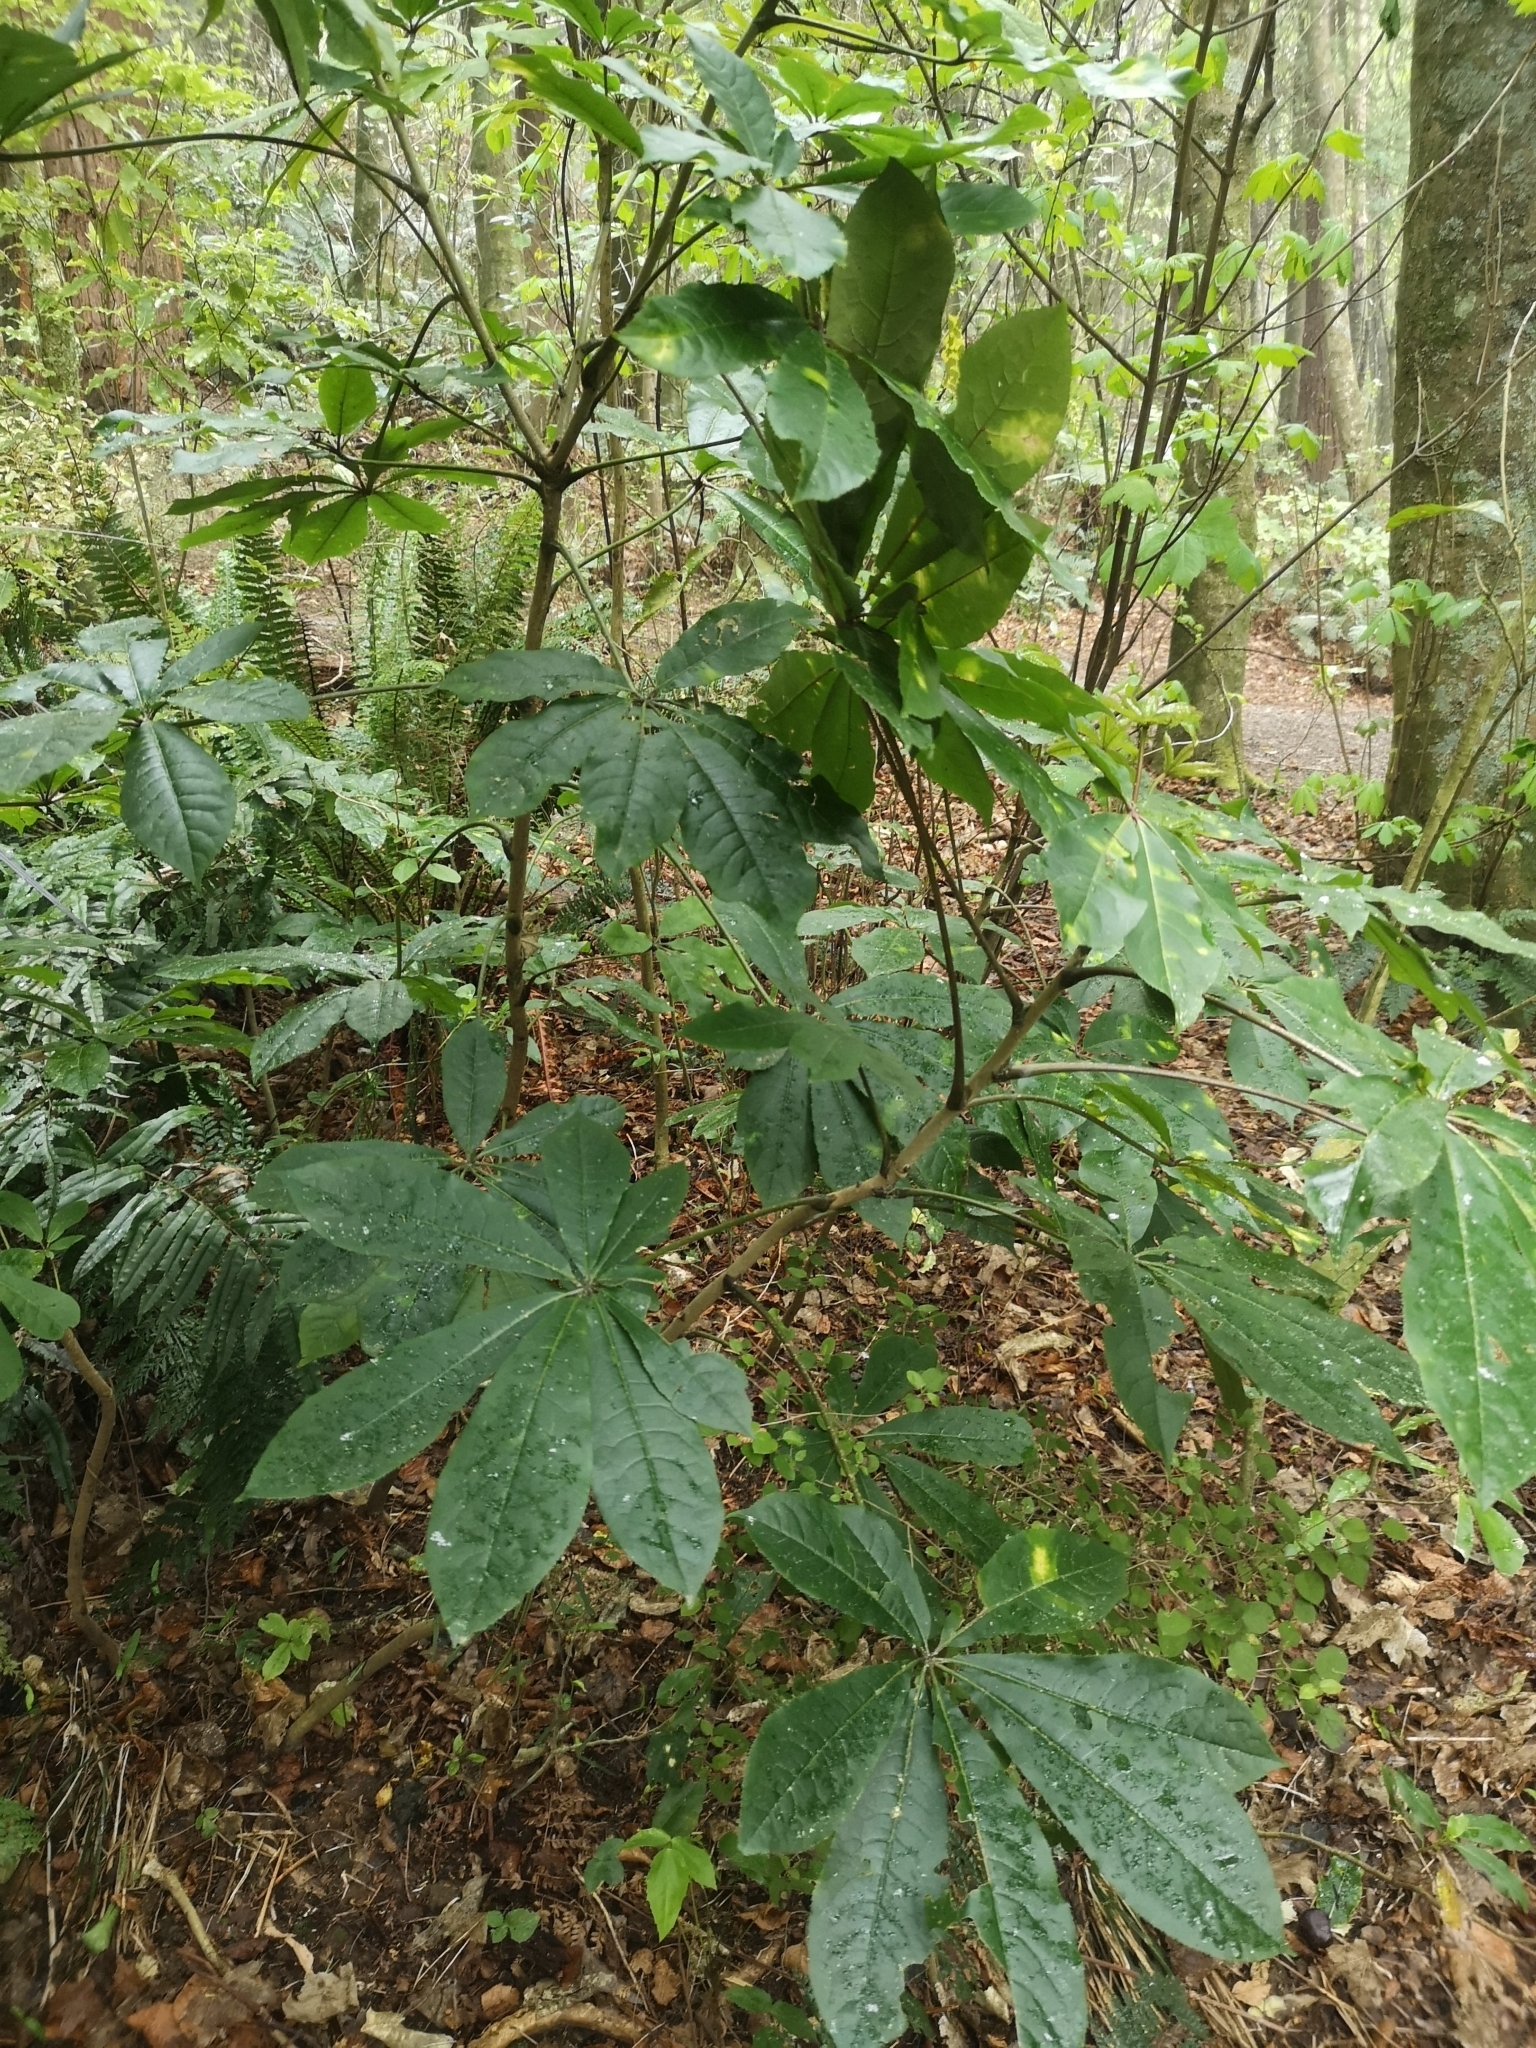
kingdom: Plantae
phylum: Tracheophyta
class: Magnoliopsida
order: Apiales
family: Araliaceae
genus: Schefflera
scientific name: Schefflera digitata
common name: Pate
